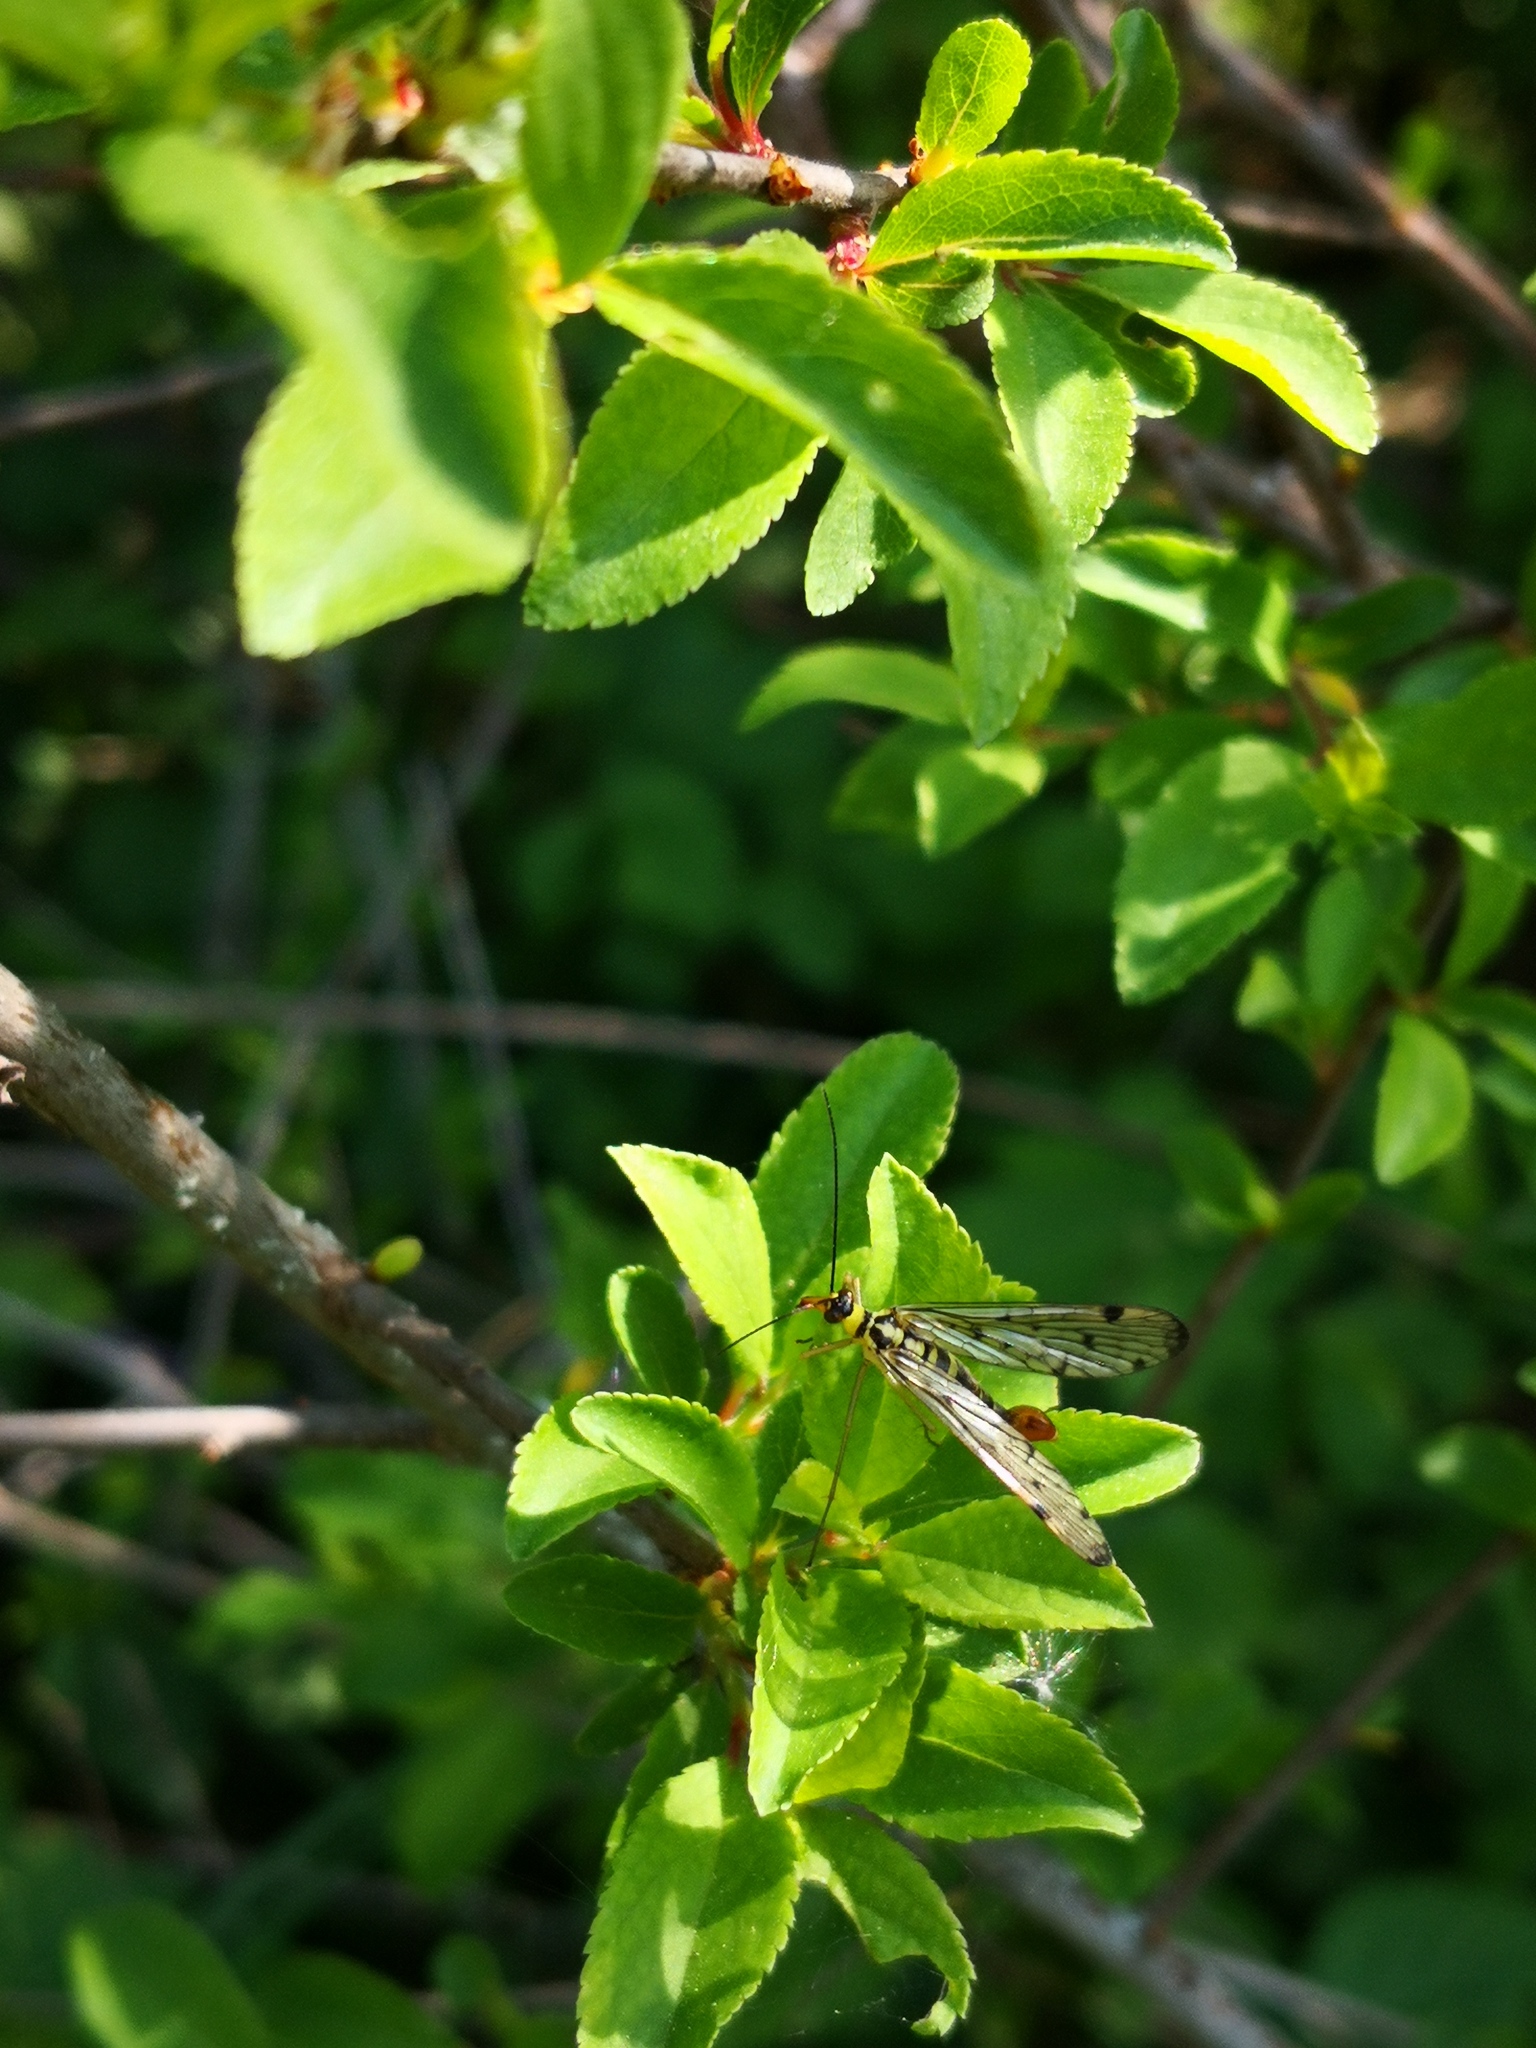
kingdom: Animalia
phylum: Arthropoda
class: Insecta
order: Mecoptera
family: Panorpidae
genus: Panorpa
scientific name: Panorpa germanica
